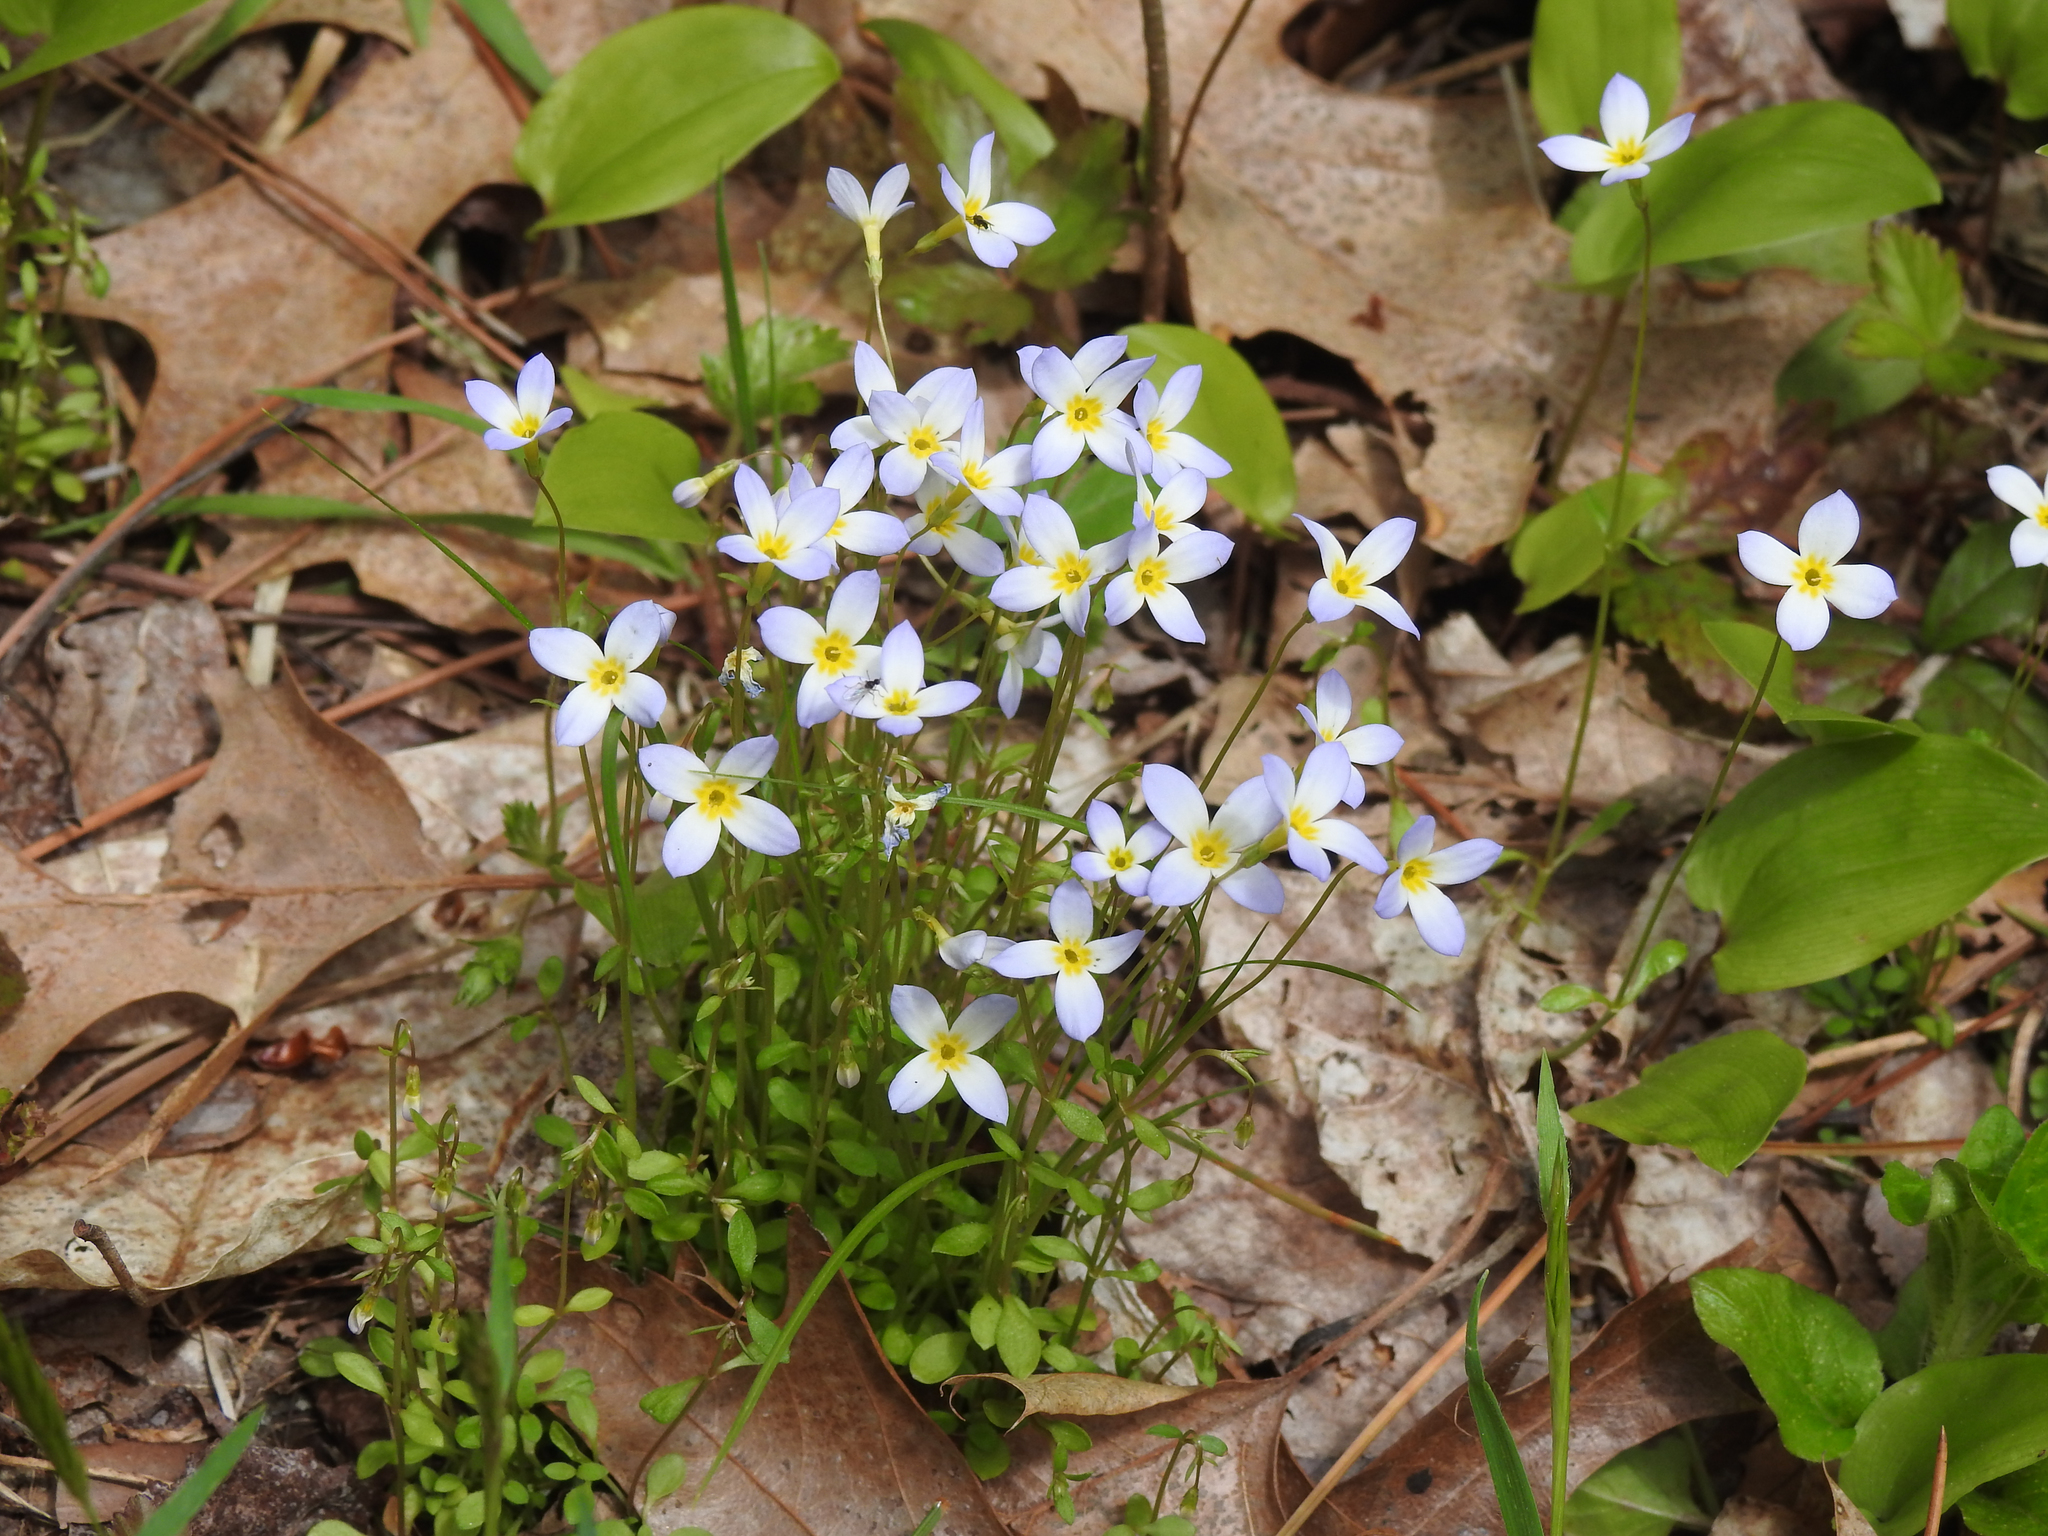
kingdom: Plantae
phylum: Tracheophyta
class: Magnoliopsida
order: Gentianales
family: Rubiaceae
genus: Houstonia
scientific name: Houstonia caerulea
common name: Bluets
